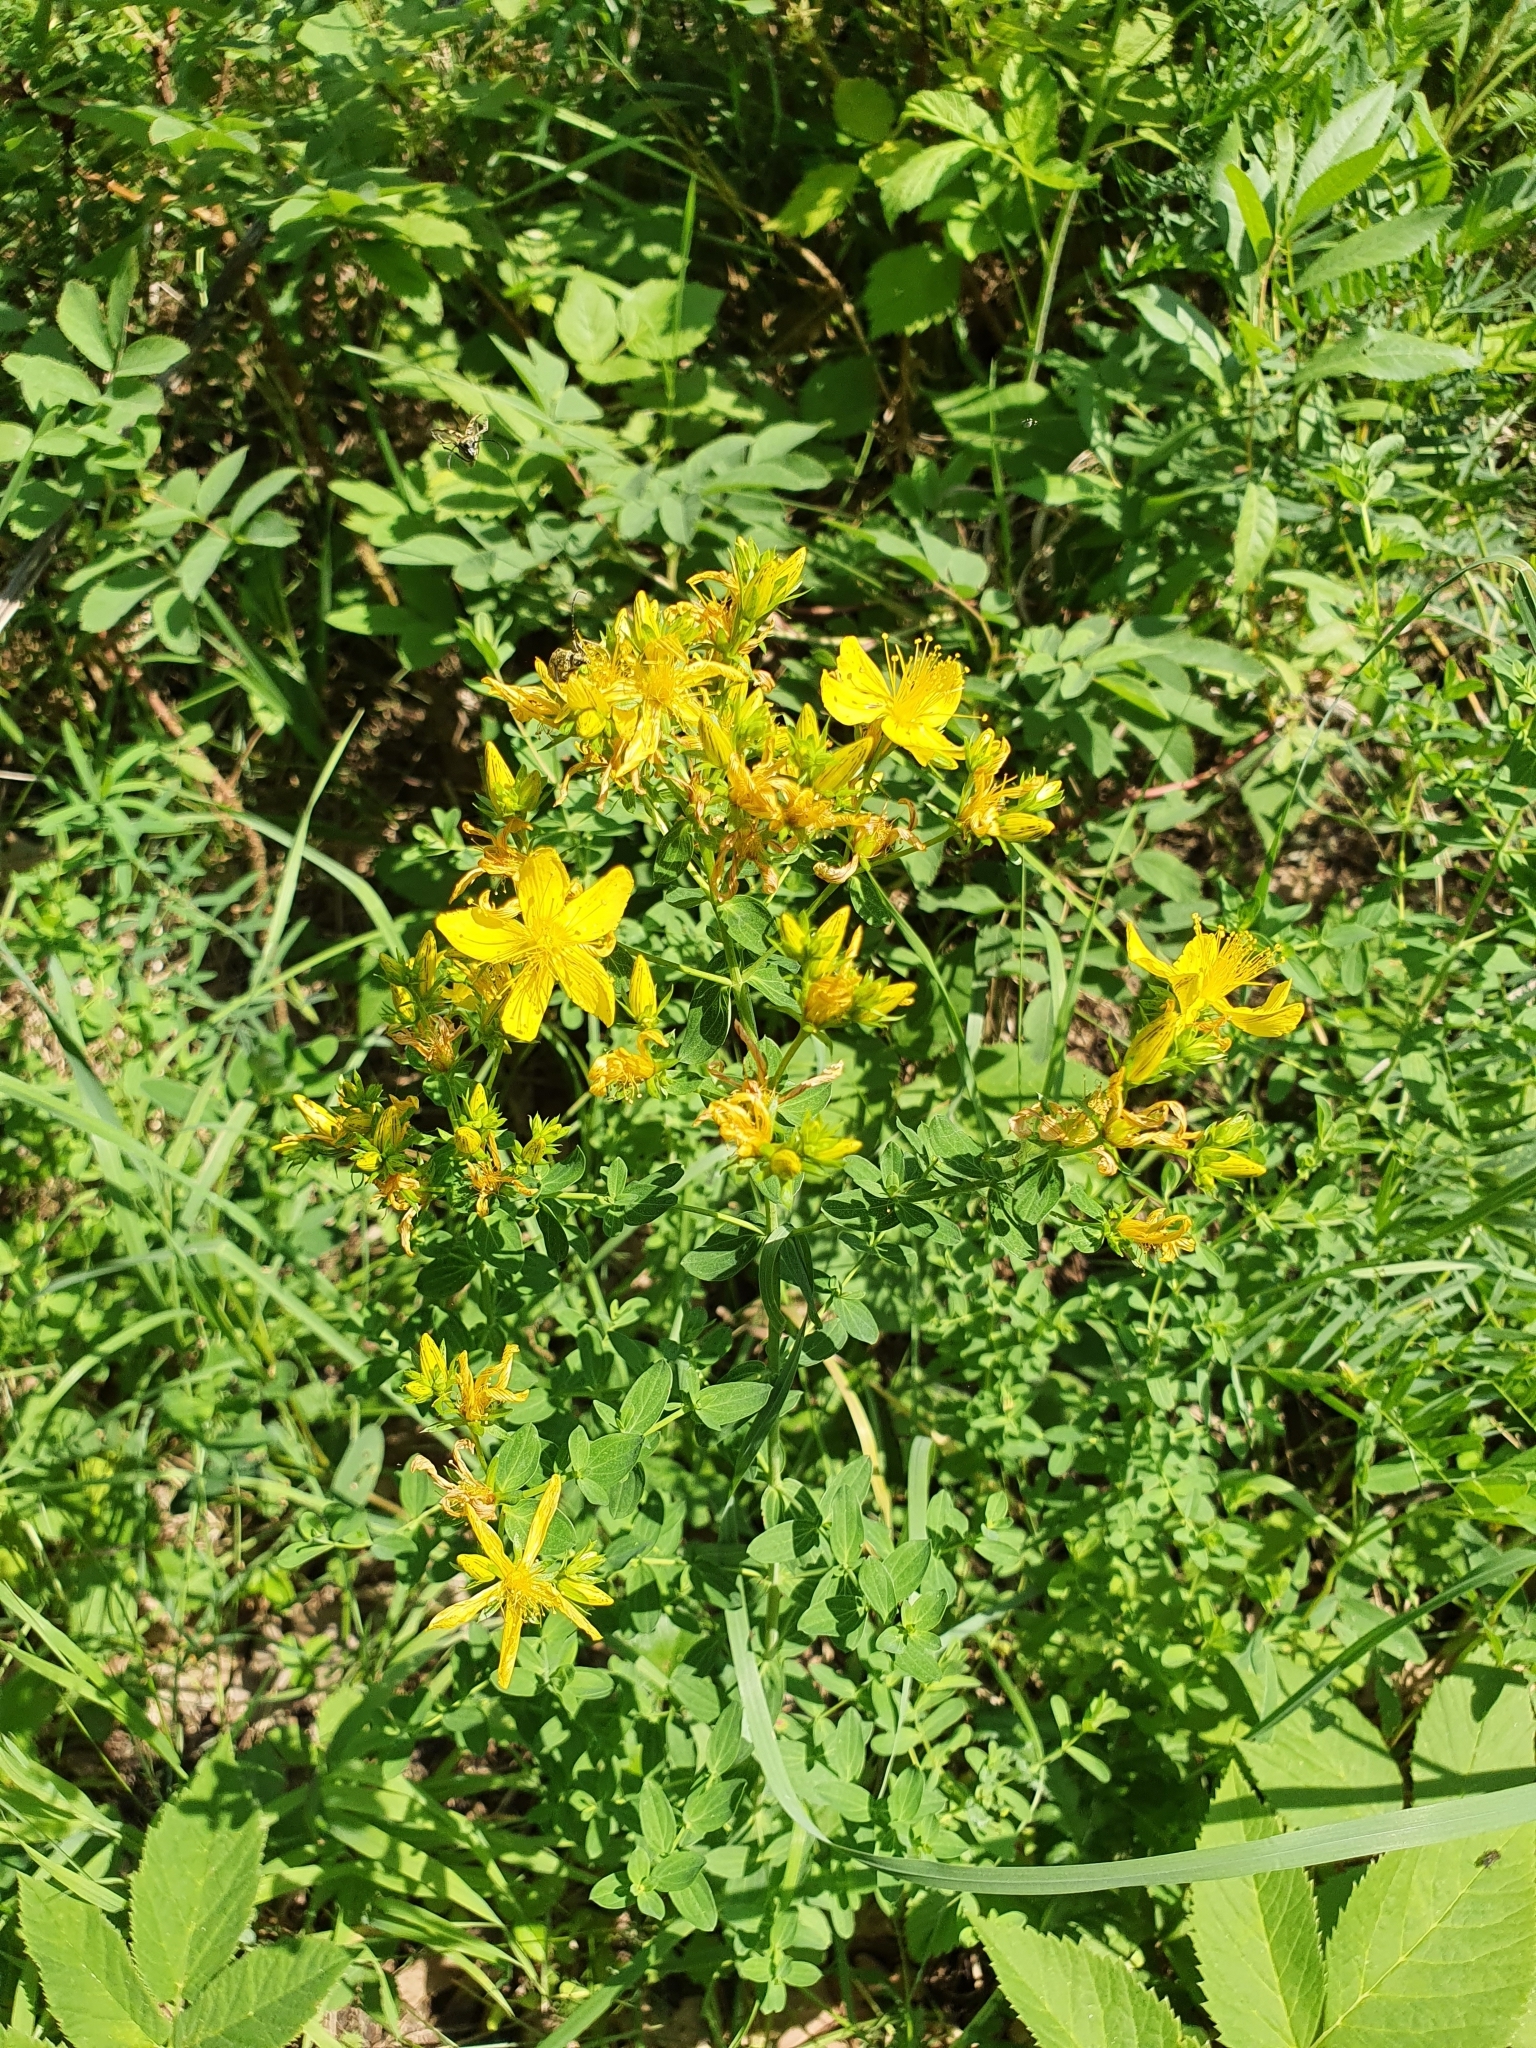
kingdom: Plantae
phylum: Tracheophyta
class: Magnoliopsida
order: Malpighiales
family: Hypericaceae
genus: Hypericum
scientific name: Hypericum perforatum
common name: Common st. johnswort
